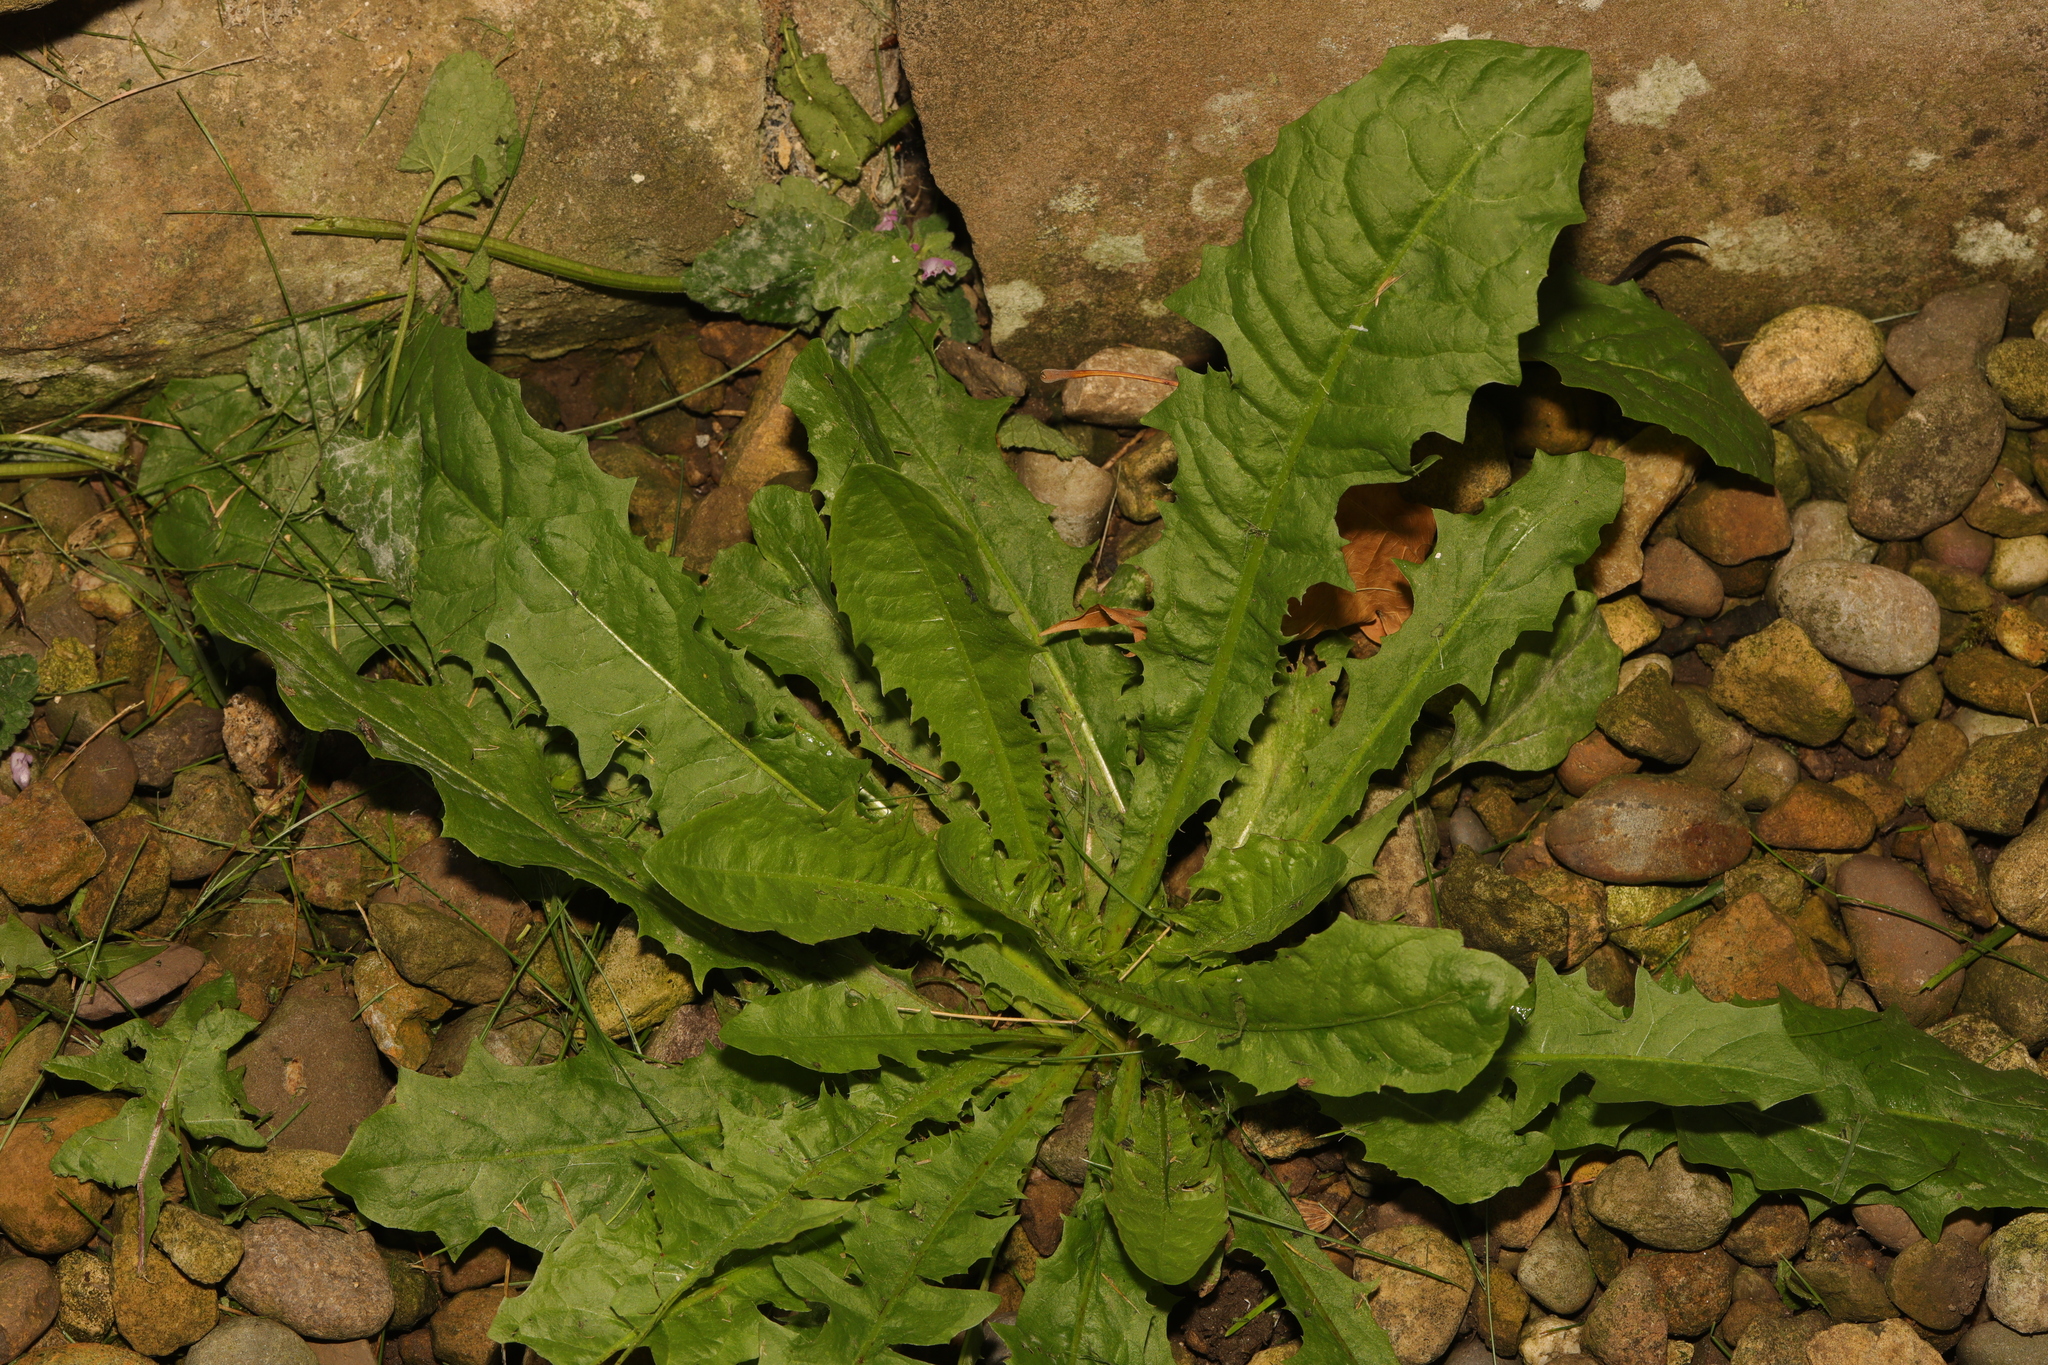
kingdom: Plantae
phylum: Tracheophyta
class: Magnoliopsida
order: Asterales
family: Asteraceae
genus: Taraxacum
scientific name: Taraxacum officinale
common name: Common dandelion
